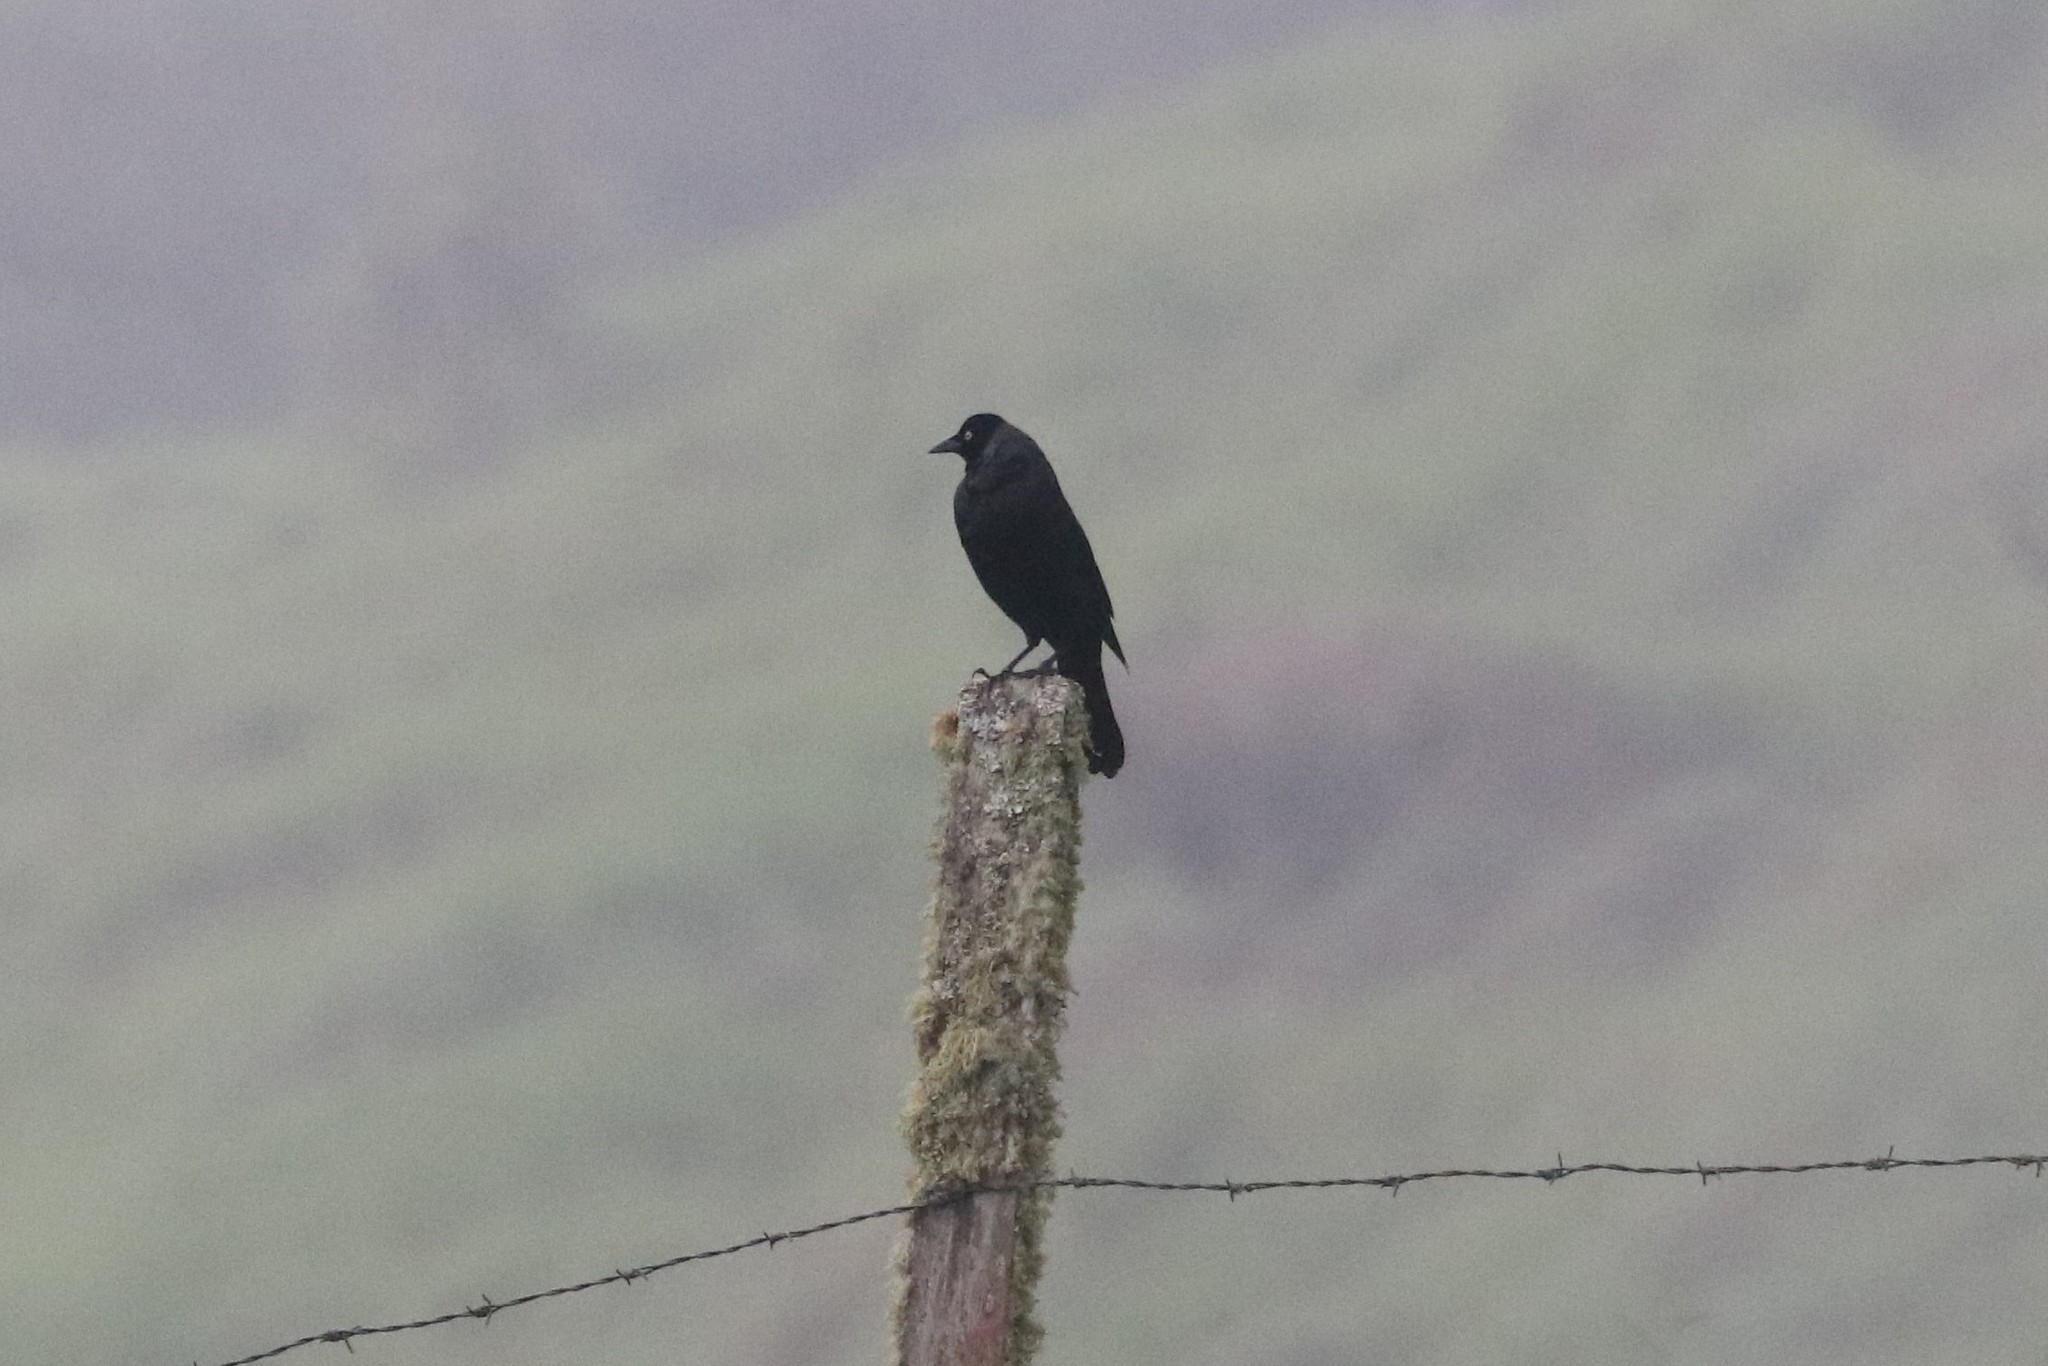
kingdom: Animalia
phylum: Chordata
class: Aves
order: Passeriformes
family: Icteridae
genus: Molothrus
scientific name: Molothrus oryzivorus
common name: Giant cowbird
